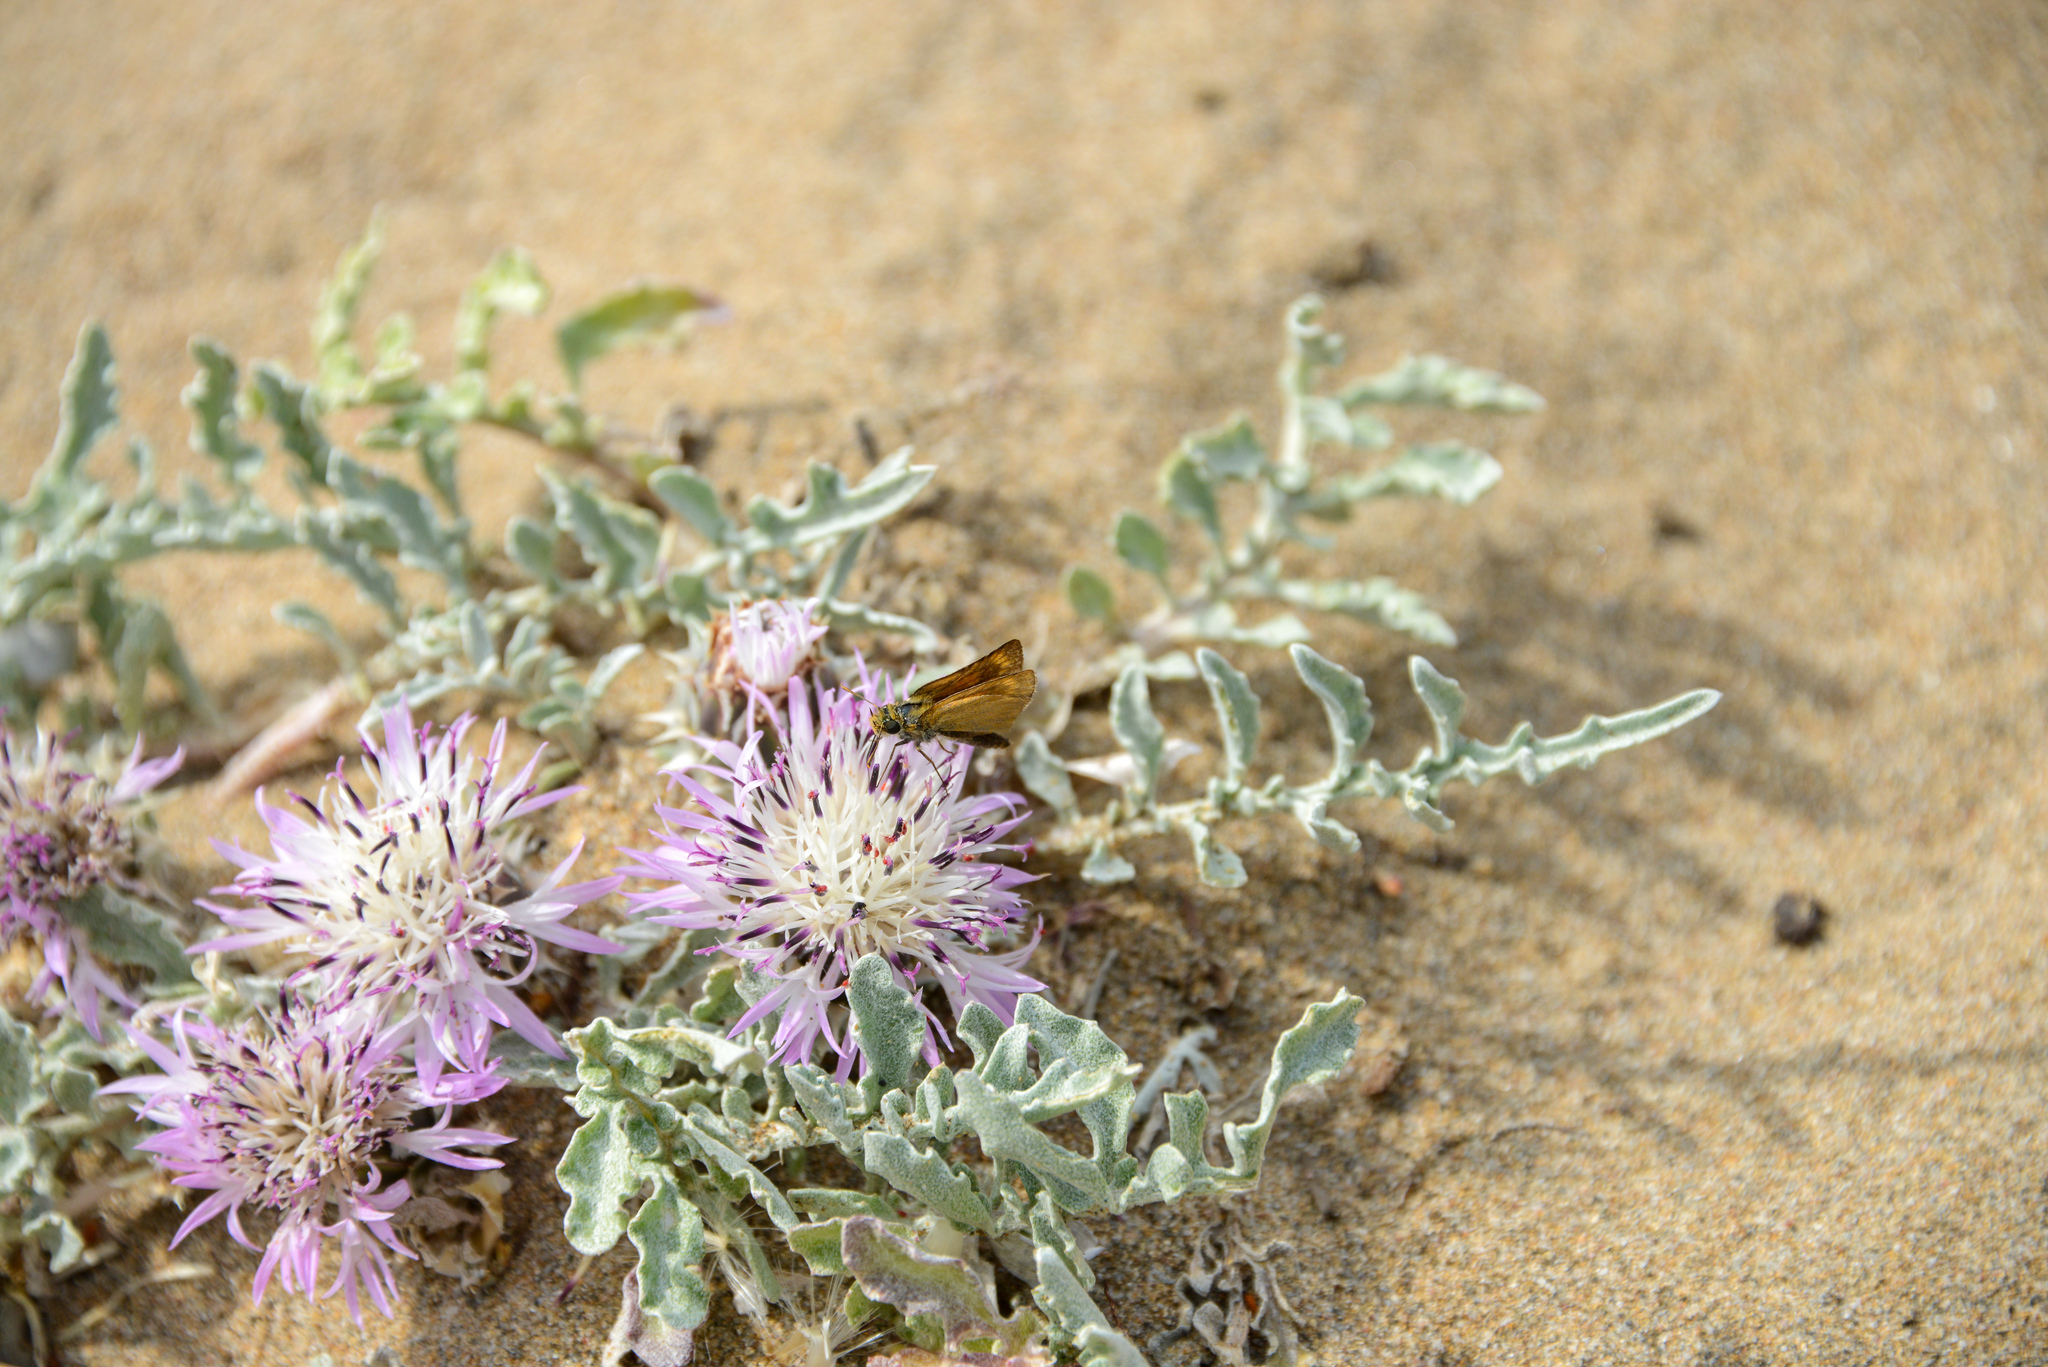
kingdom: Animalia
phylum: Arthropoda
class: Insecta
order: Lepidoptera
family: Hesperiidae
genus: Thymelicus
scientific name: Thymelicus acteon
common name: Lulworth skipper
